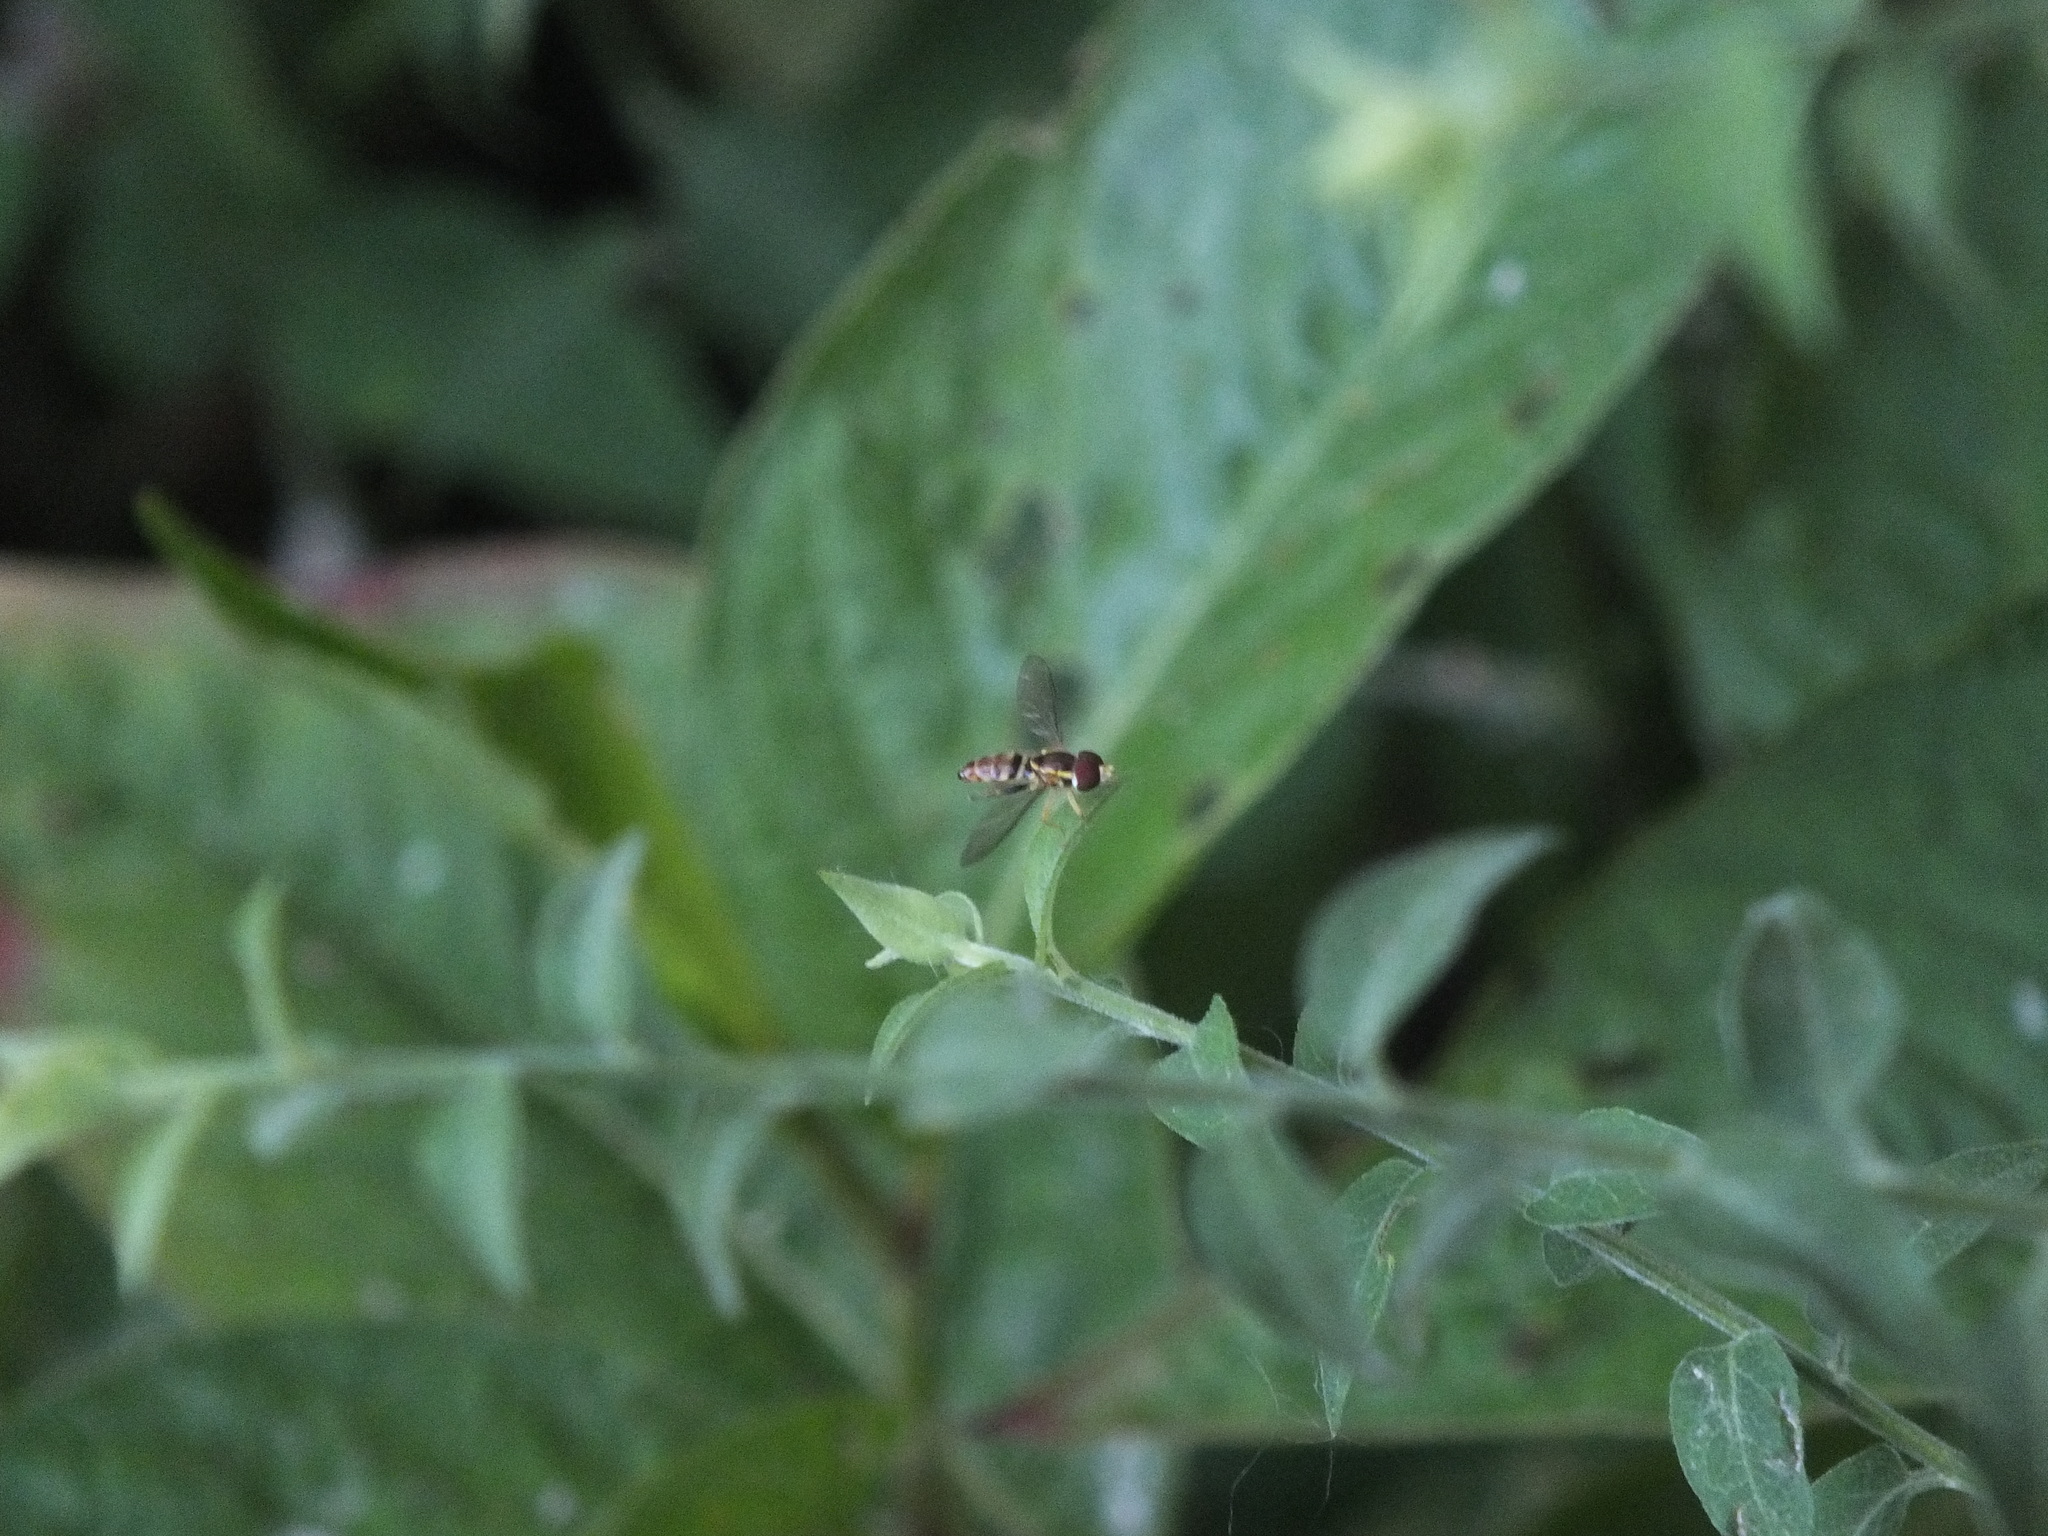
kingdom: Animalia
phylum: Arthropoda
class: Insecta
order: Diptera
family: Syrphidae
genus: Toxomerus
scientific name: Toxomerus geminatus
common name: Eastern calligrapher
